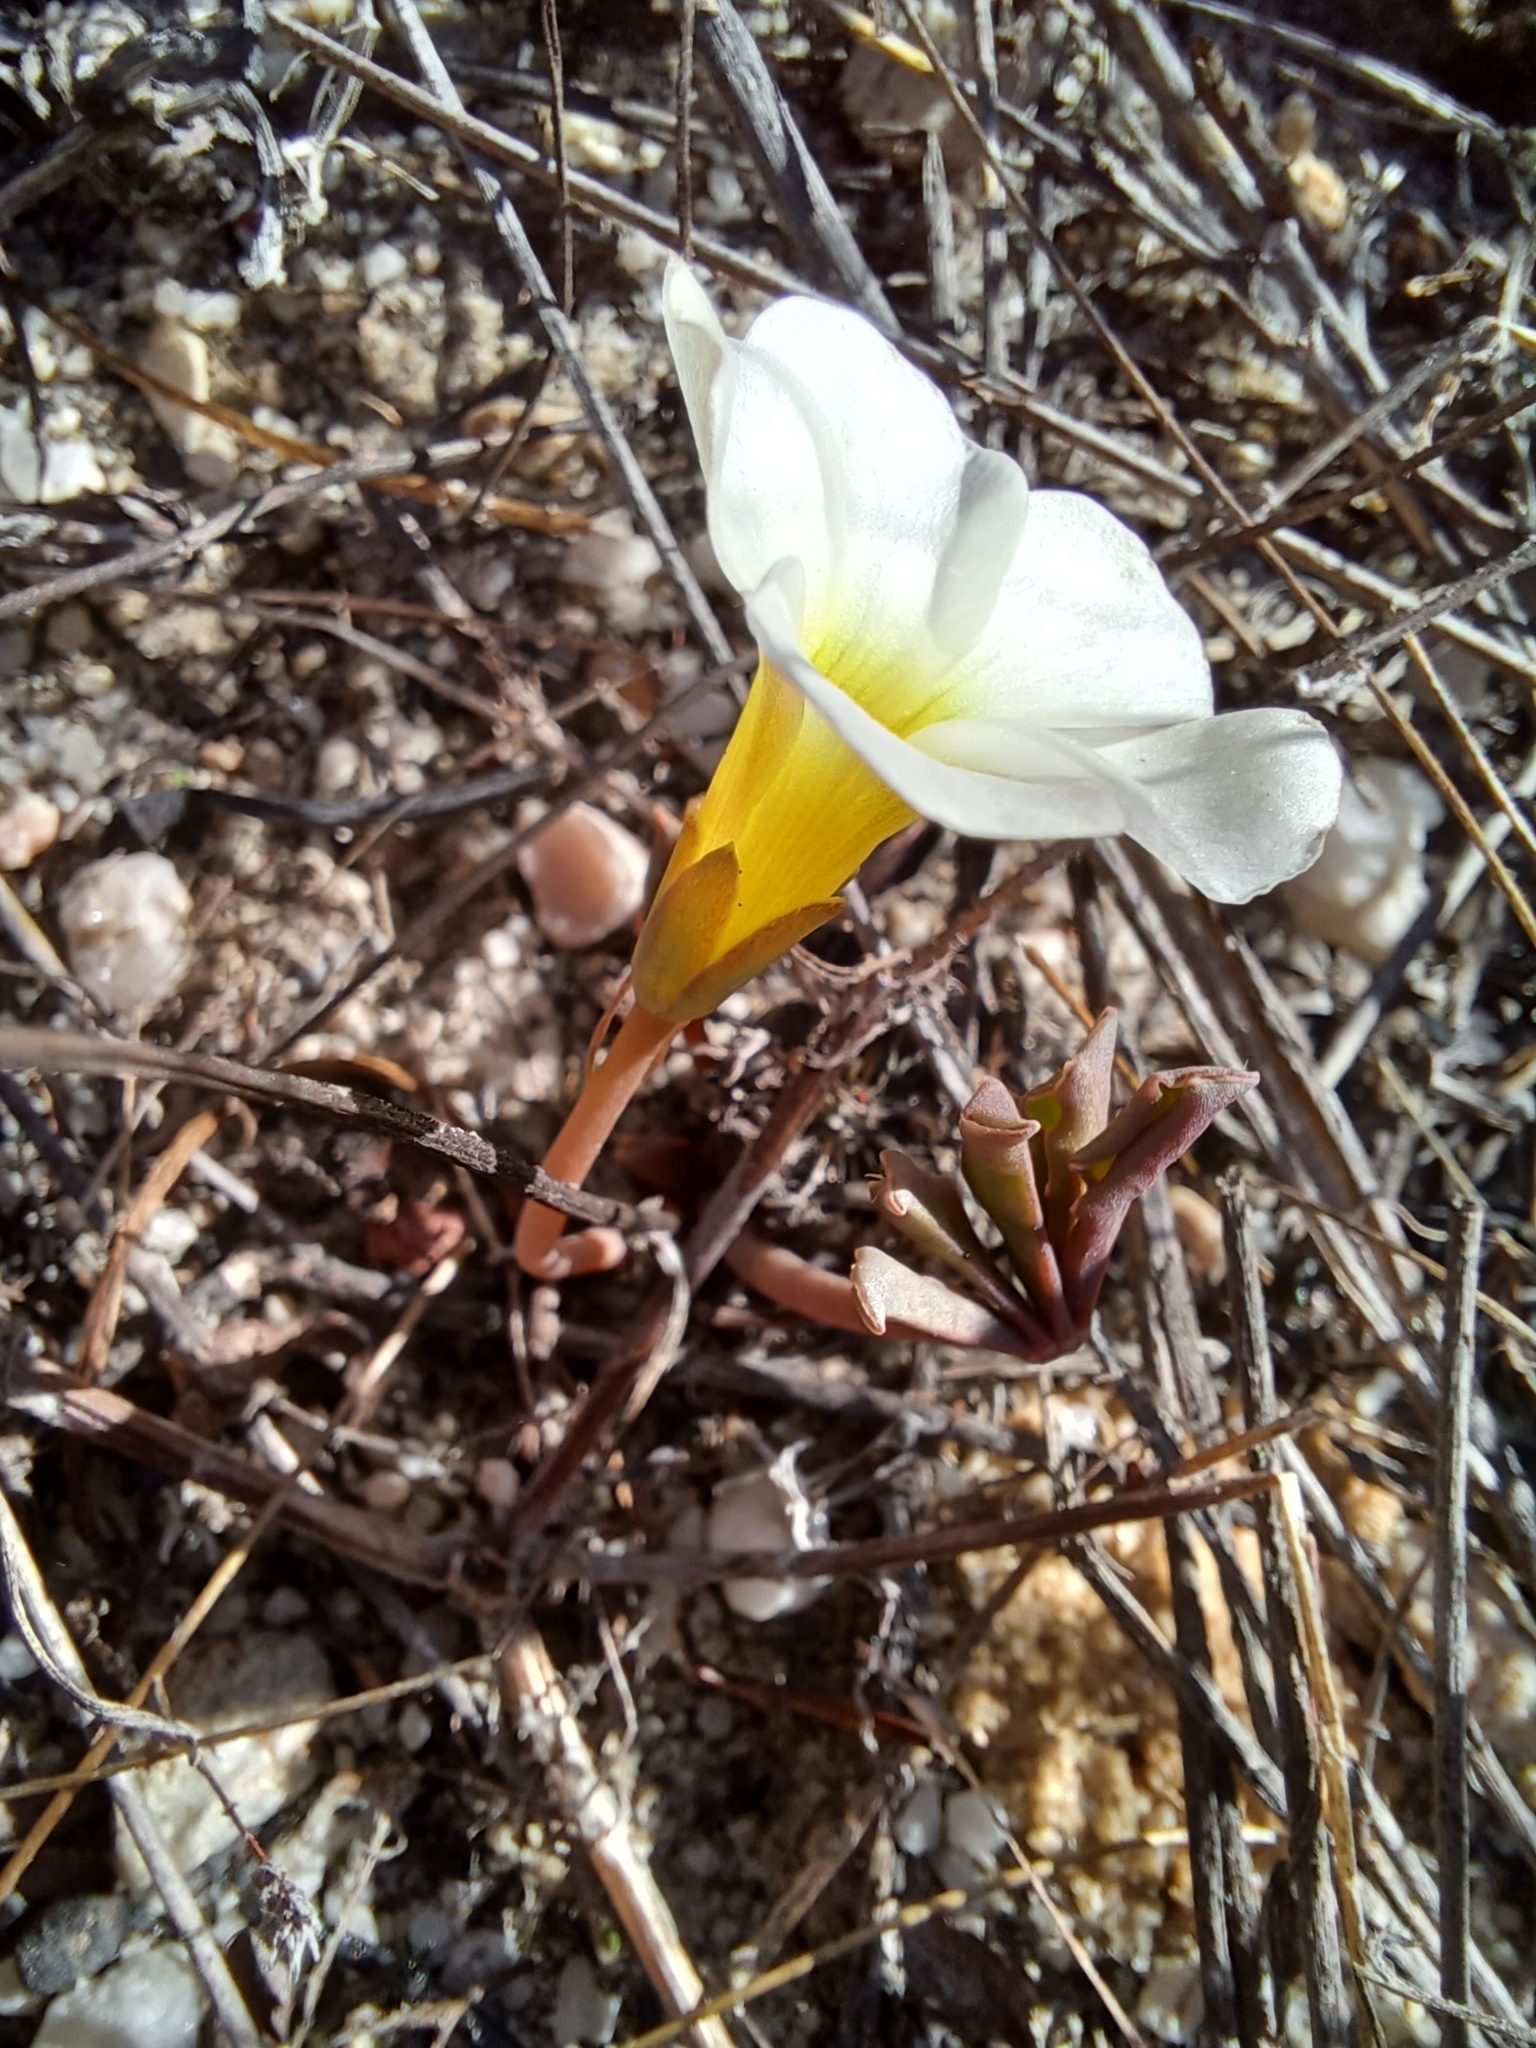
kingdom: Plantae
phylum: Tracheophyta
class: Magnoliopsida
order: Oxalidales
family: Oxalidaceae
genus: Oxalis
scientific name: Oxalis flava
